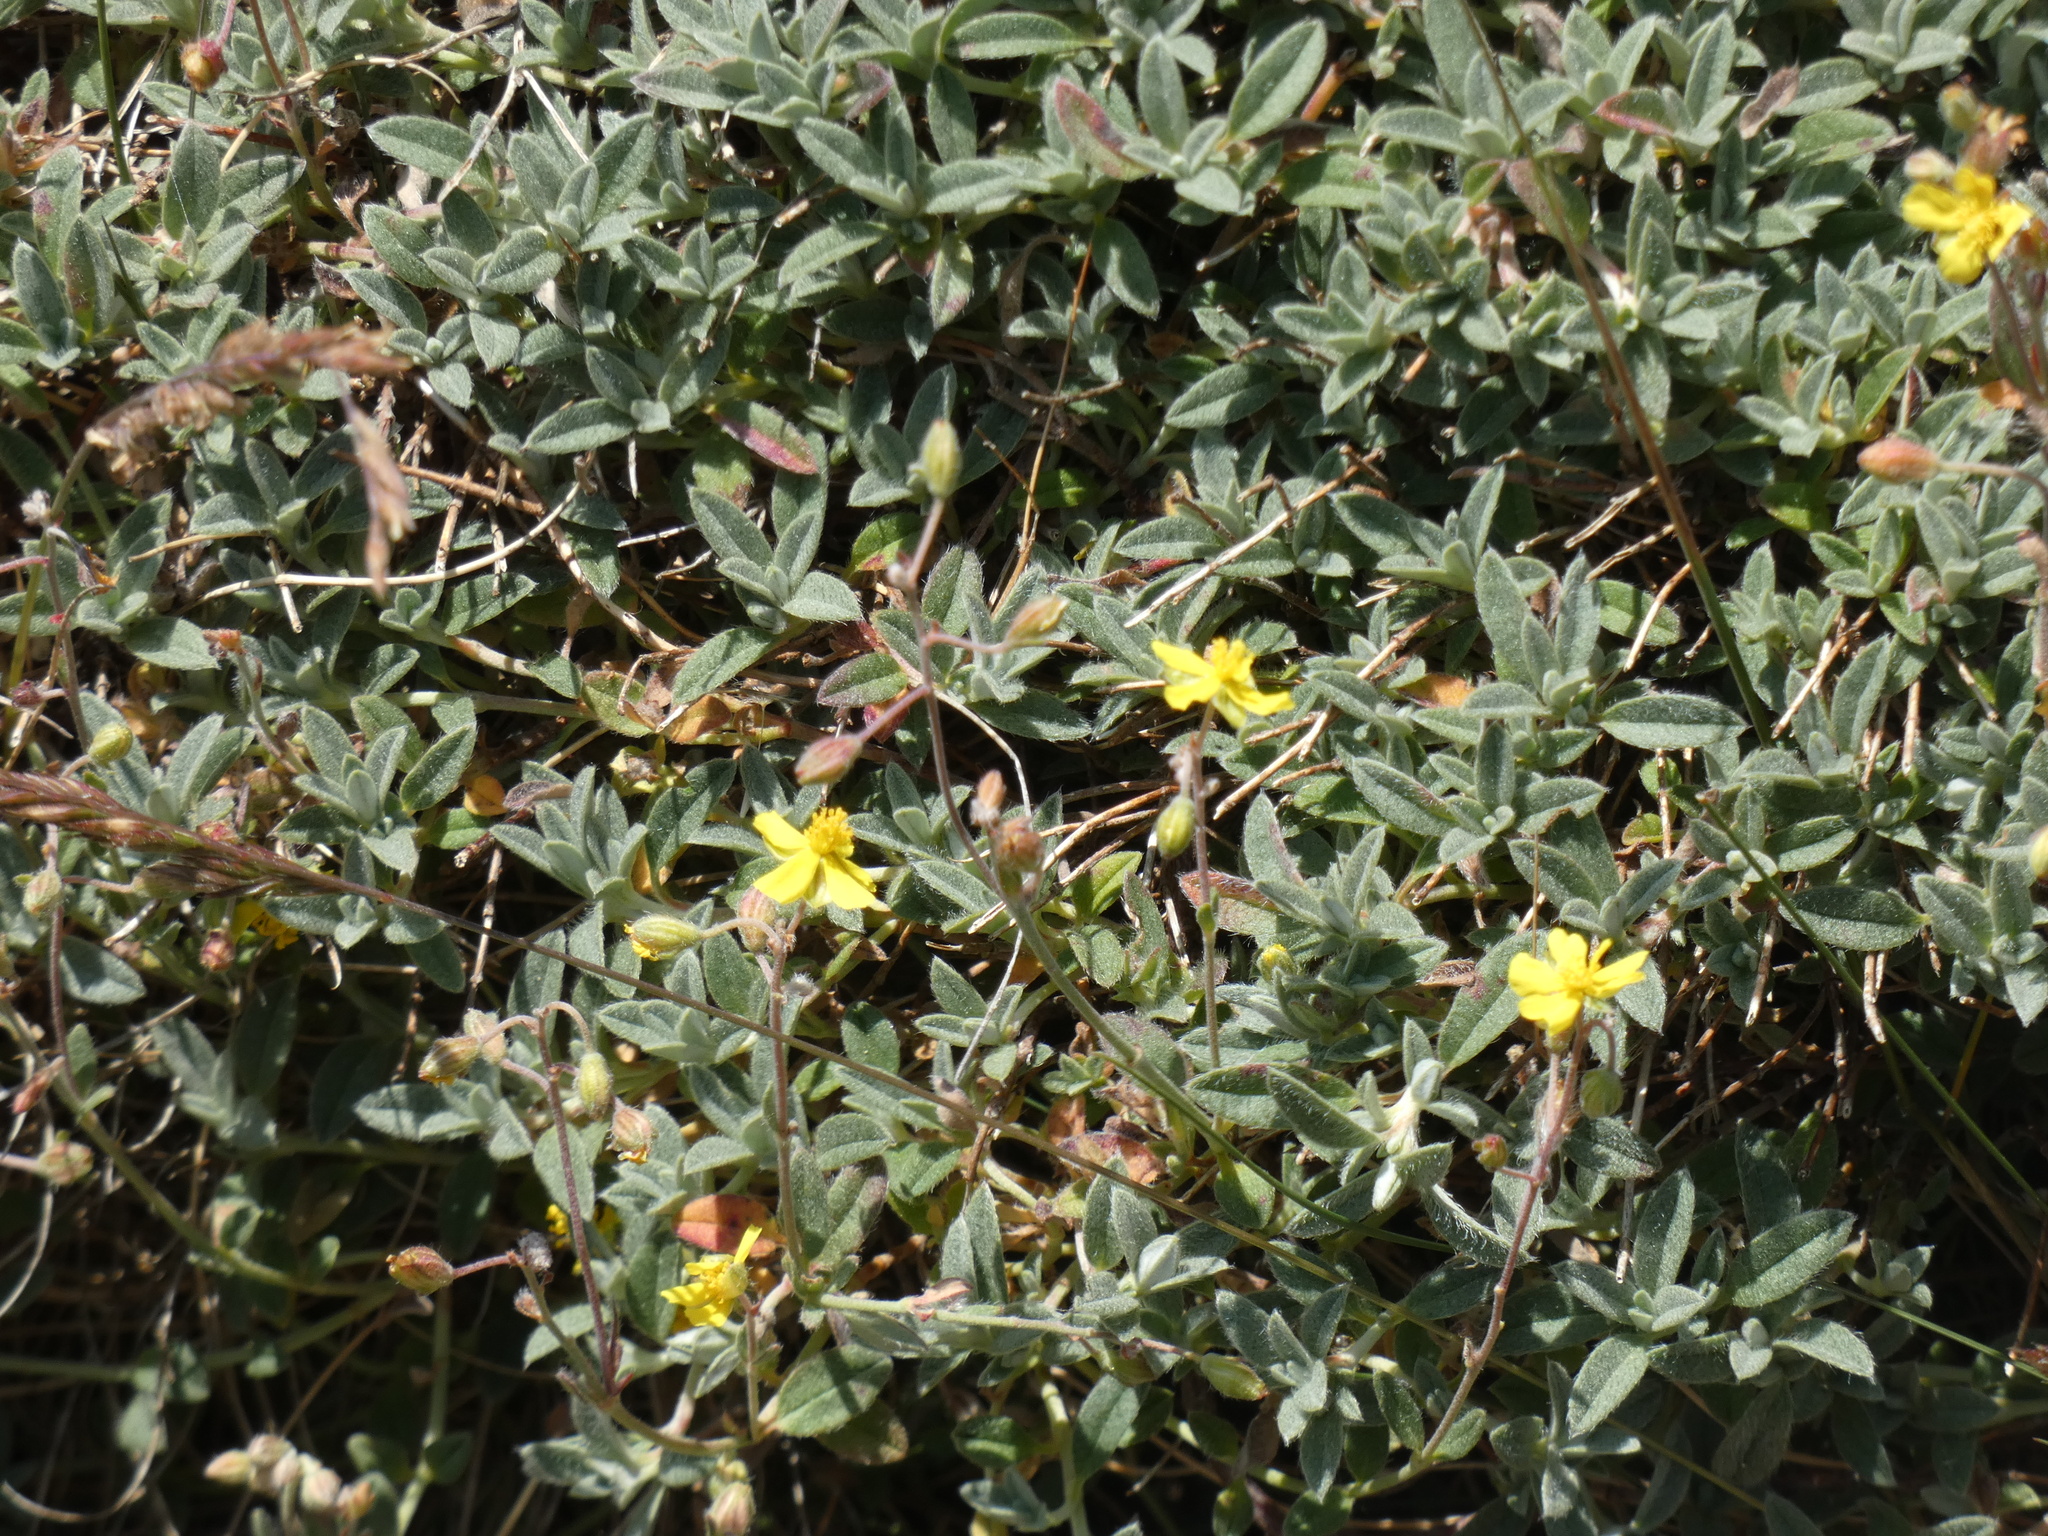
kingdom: Plantae
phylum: Tracheophyta
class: Magnoliopsida
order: Malvales
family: Cistaceae
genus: Helianthemum
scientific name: Helianthemum oelandicum
